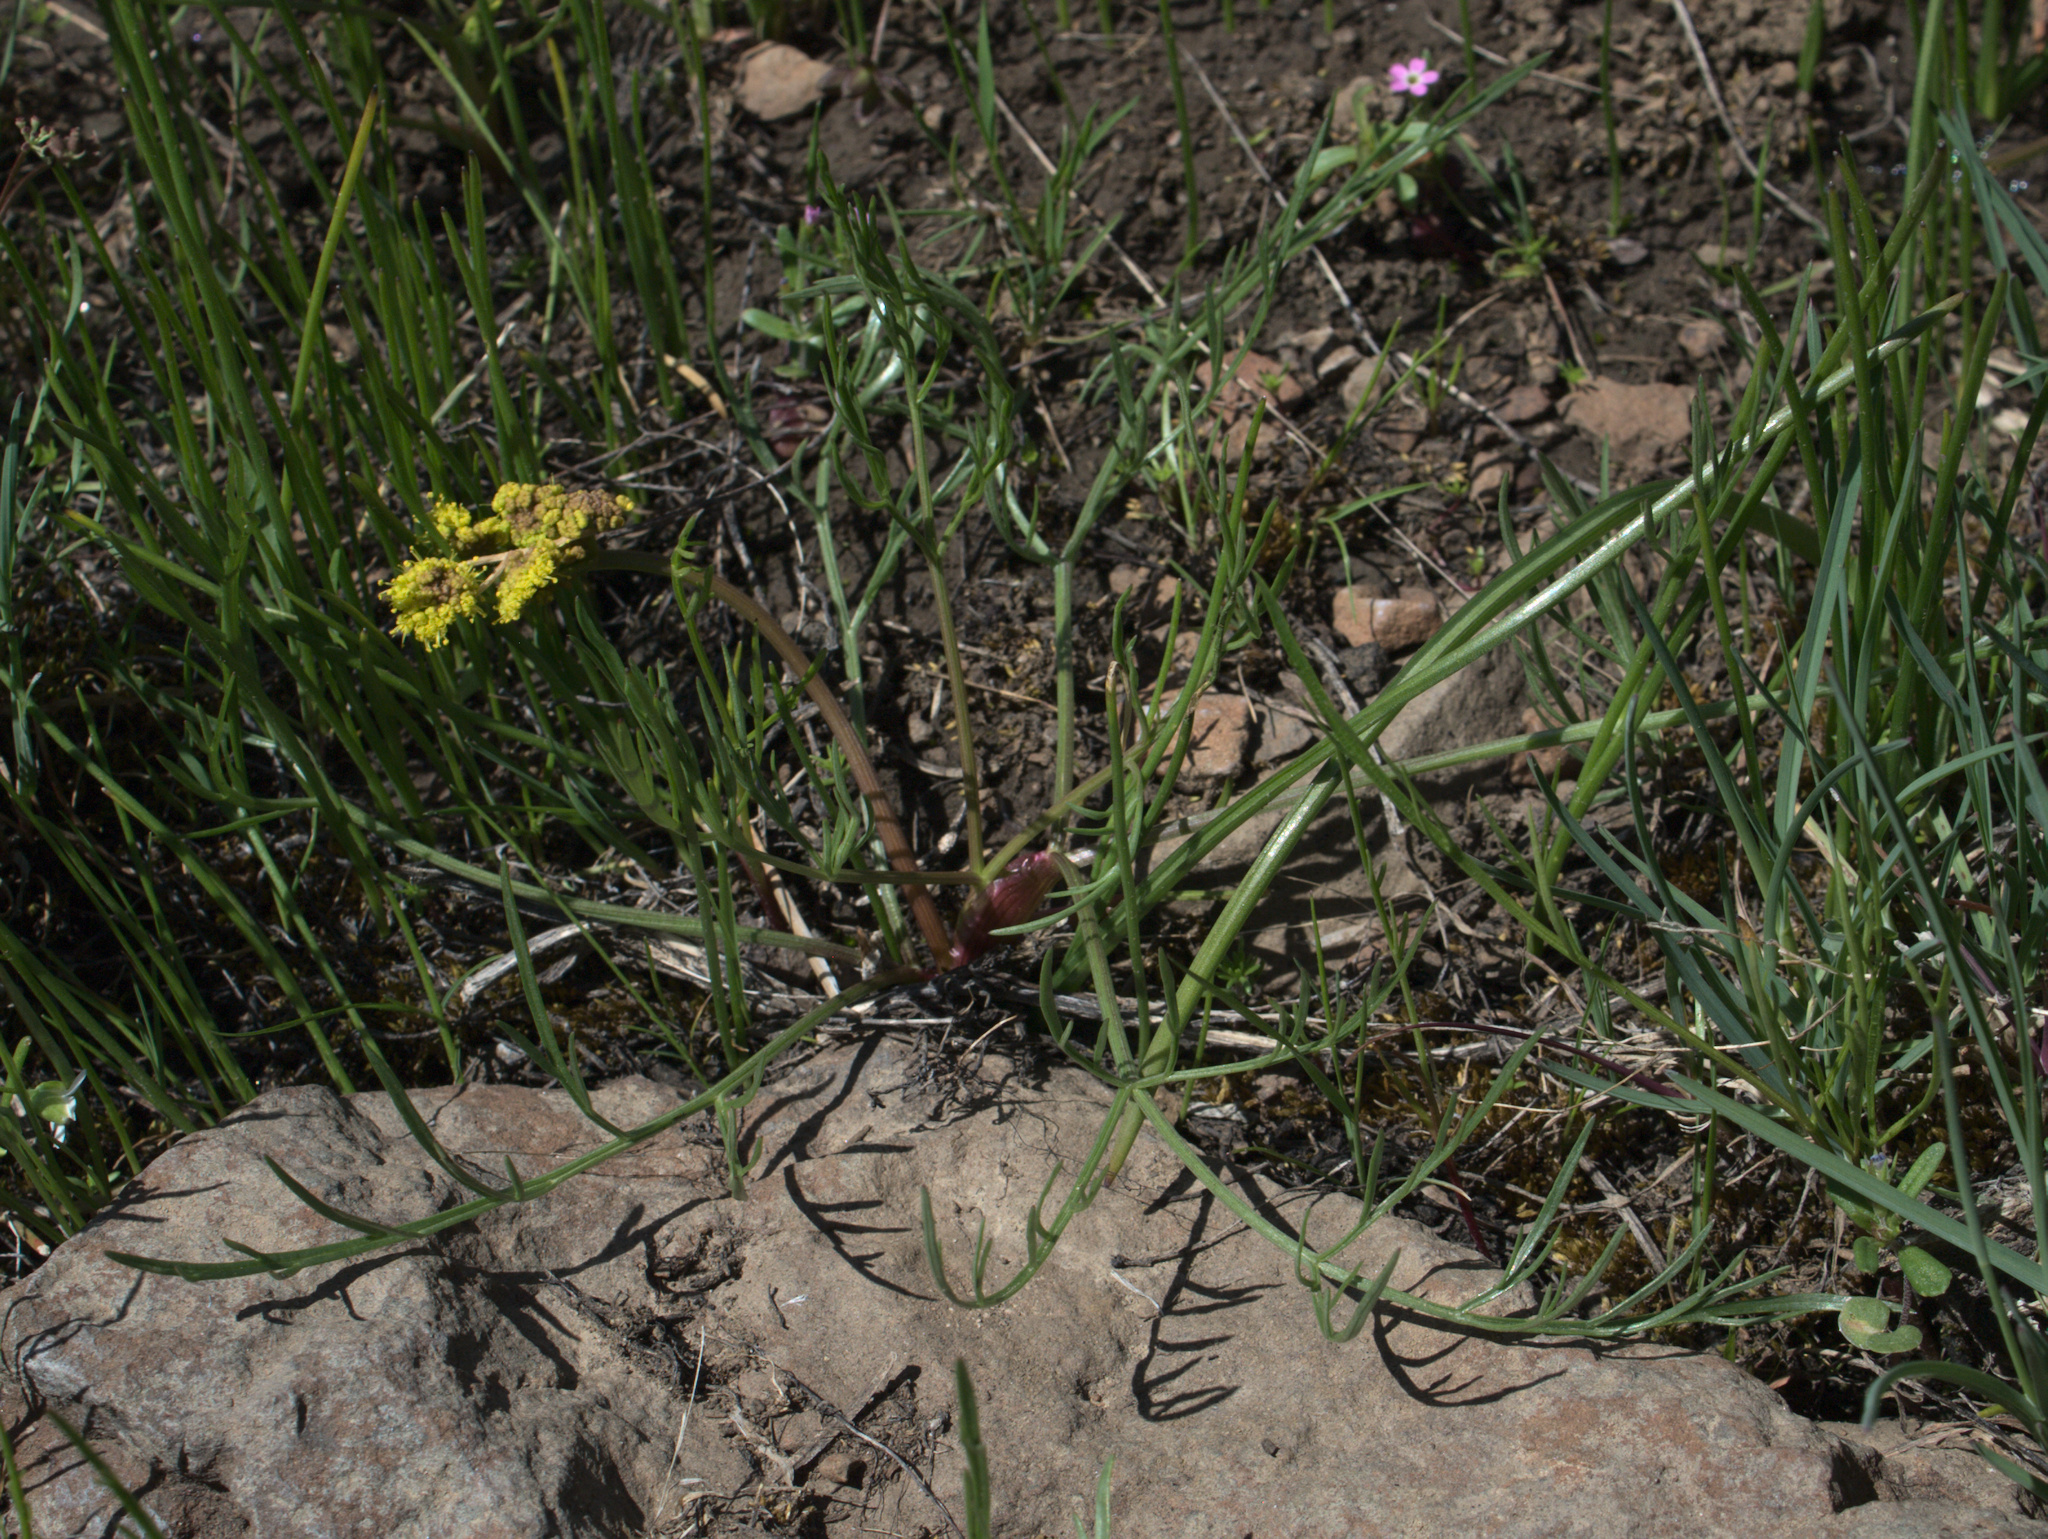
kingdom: Plantae
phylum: Tracheophyta
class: Magnoliopsida
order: Apiales
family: Apiaceae
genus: Lomatium
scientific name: Lomatium triternatum
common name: Ternate lomatium
